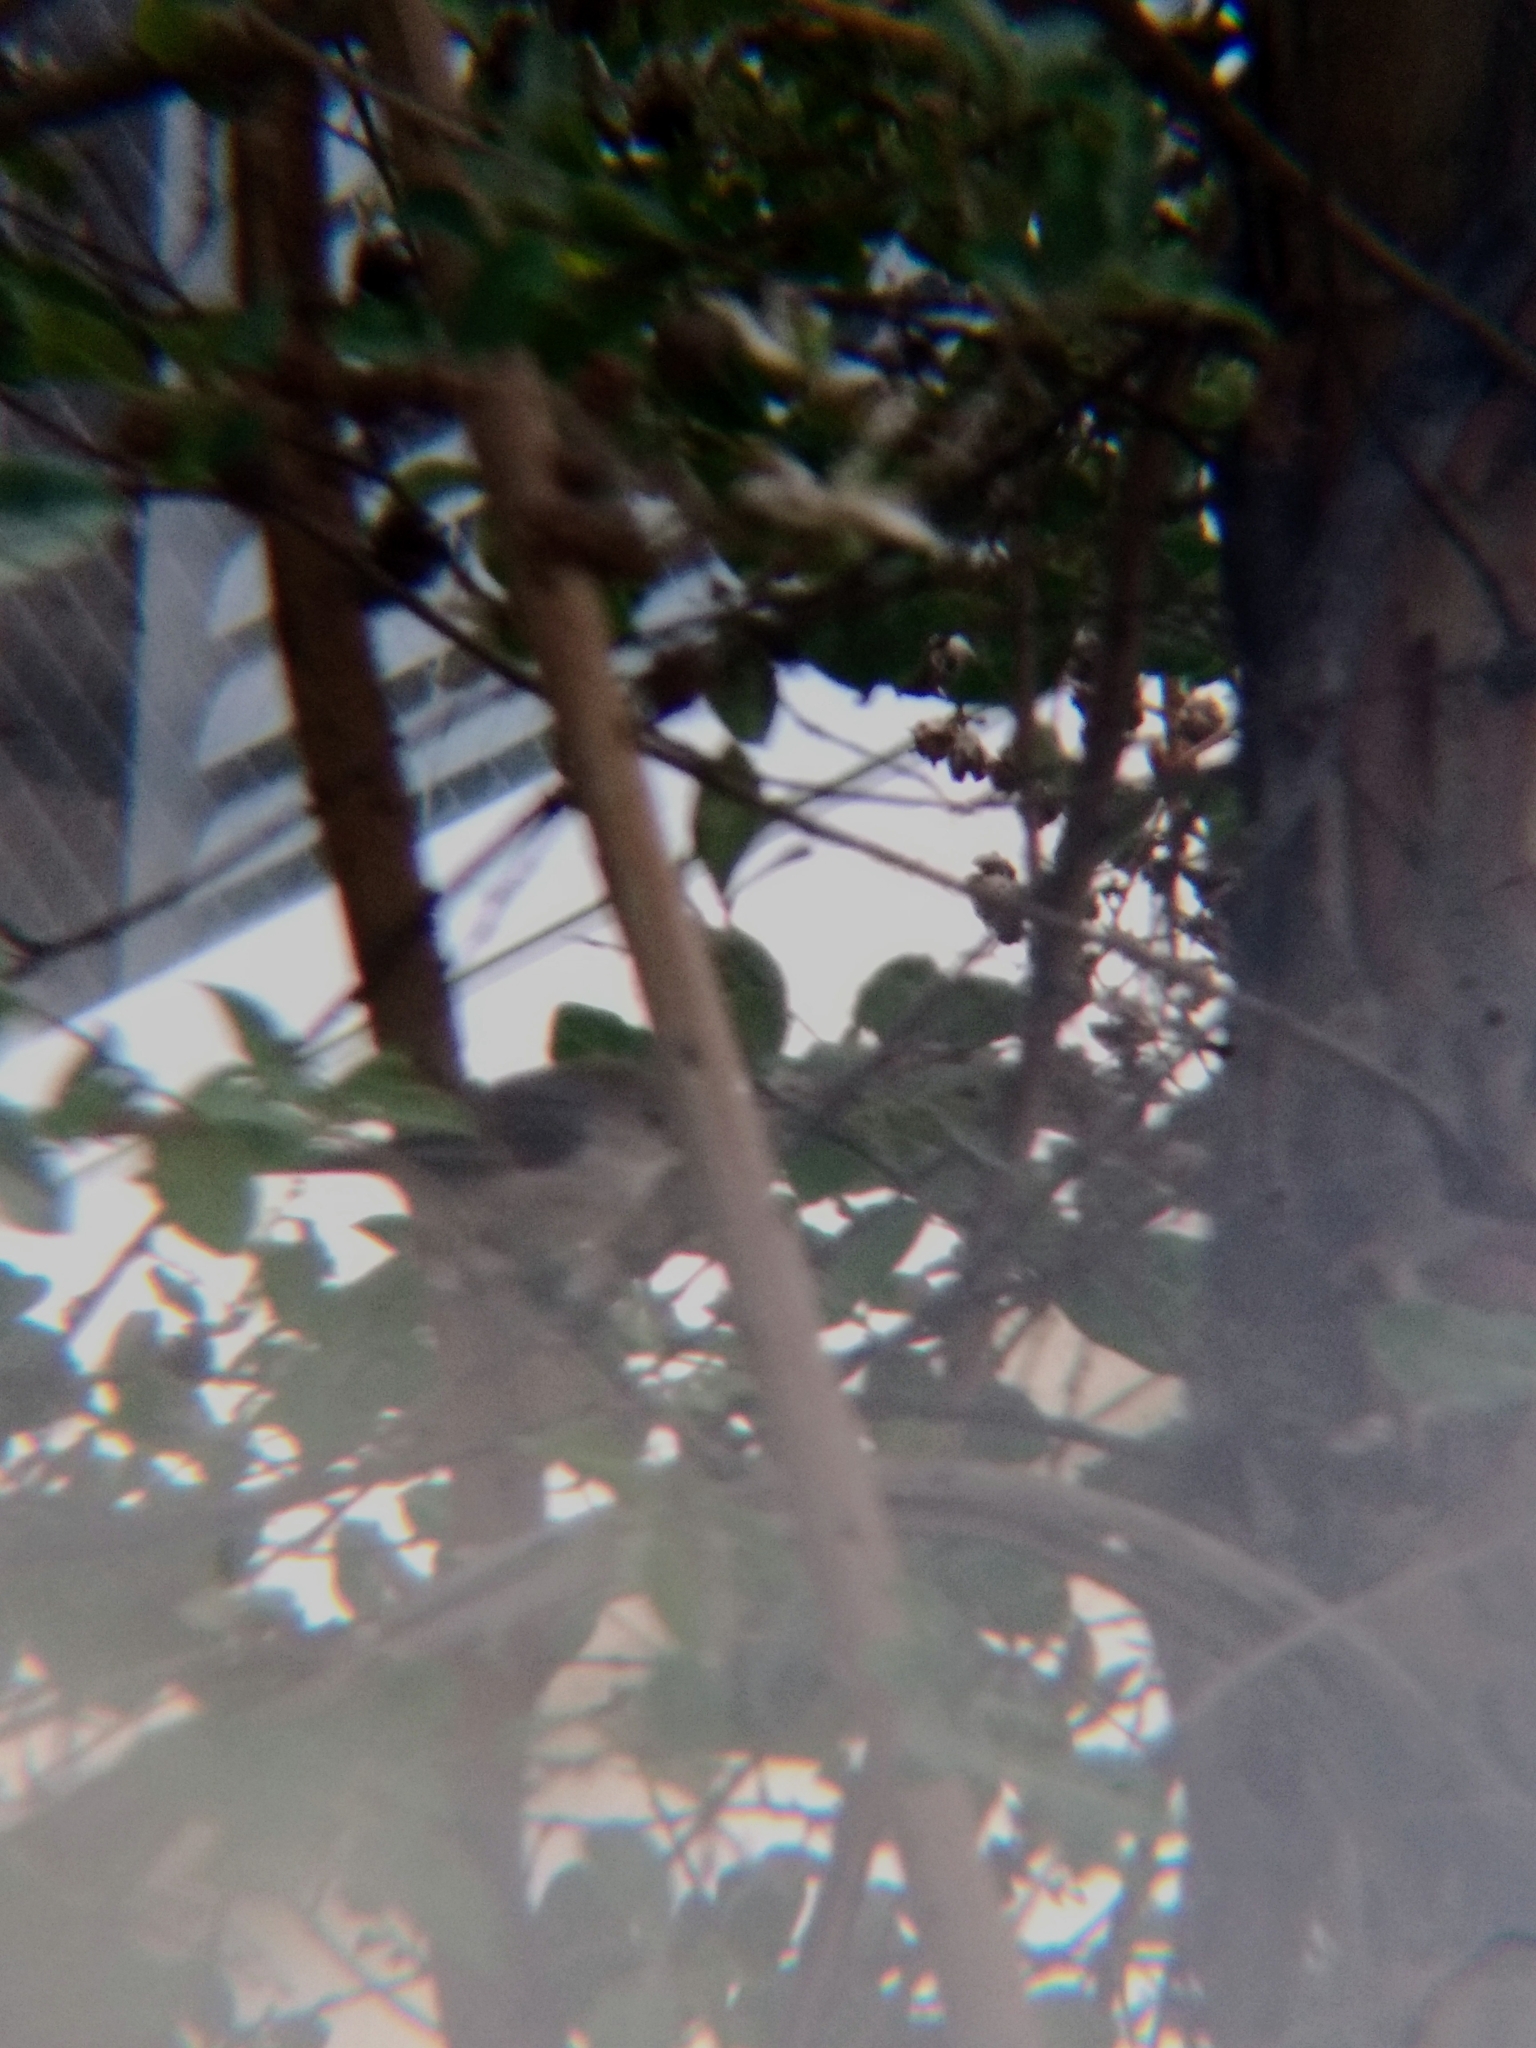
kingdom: Animalia
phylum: Chordata
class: Aves
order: Passeriformes
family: Aegithalidae
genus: Psaltriparus
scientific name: Psaltriparus minimus
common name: American bushtit
